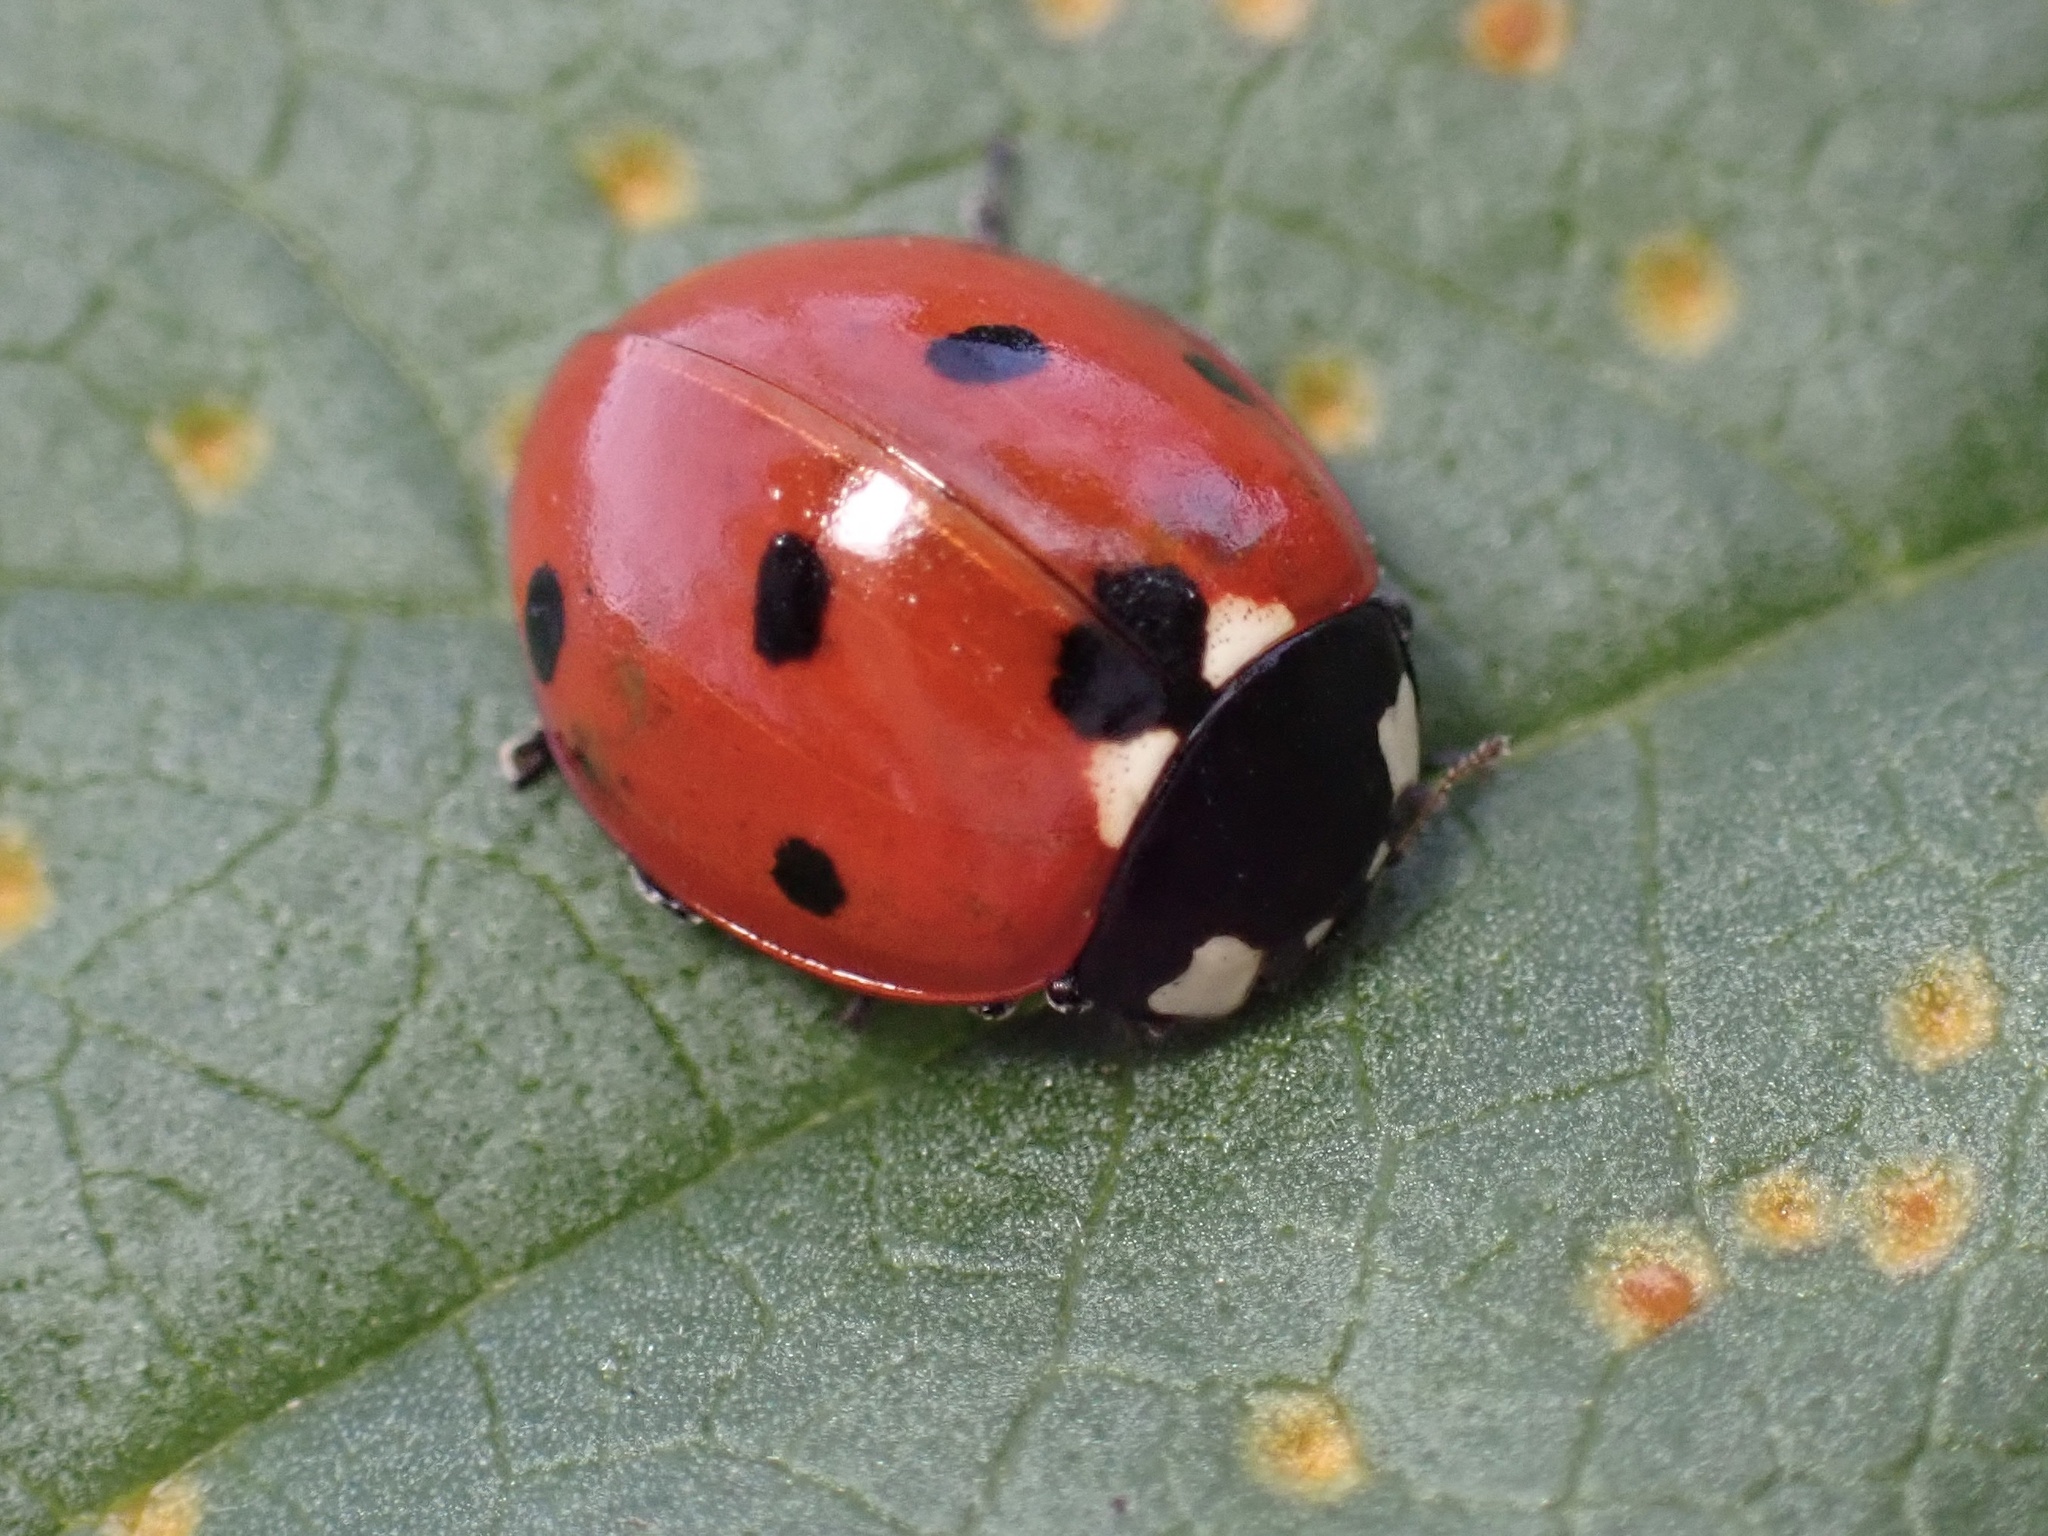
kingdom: Animalia
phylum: Arthropoda
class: Insecta
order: Coleoptera
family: Coccinellidae
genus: Coccinella
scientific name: Coccinella septempunctata
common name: Sevenspotted lady beetle
